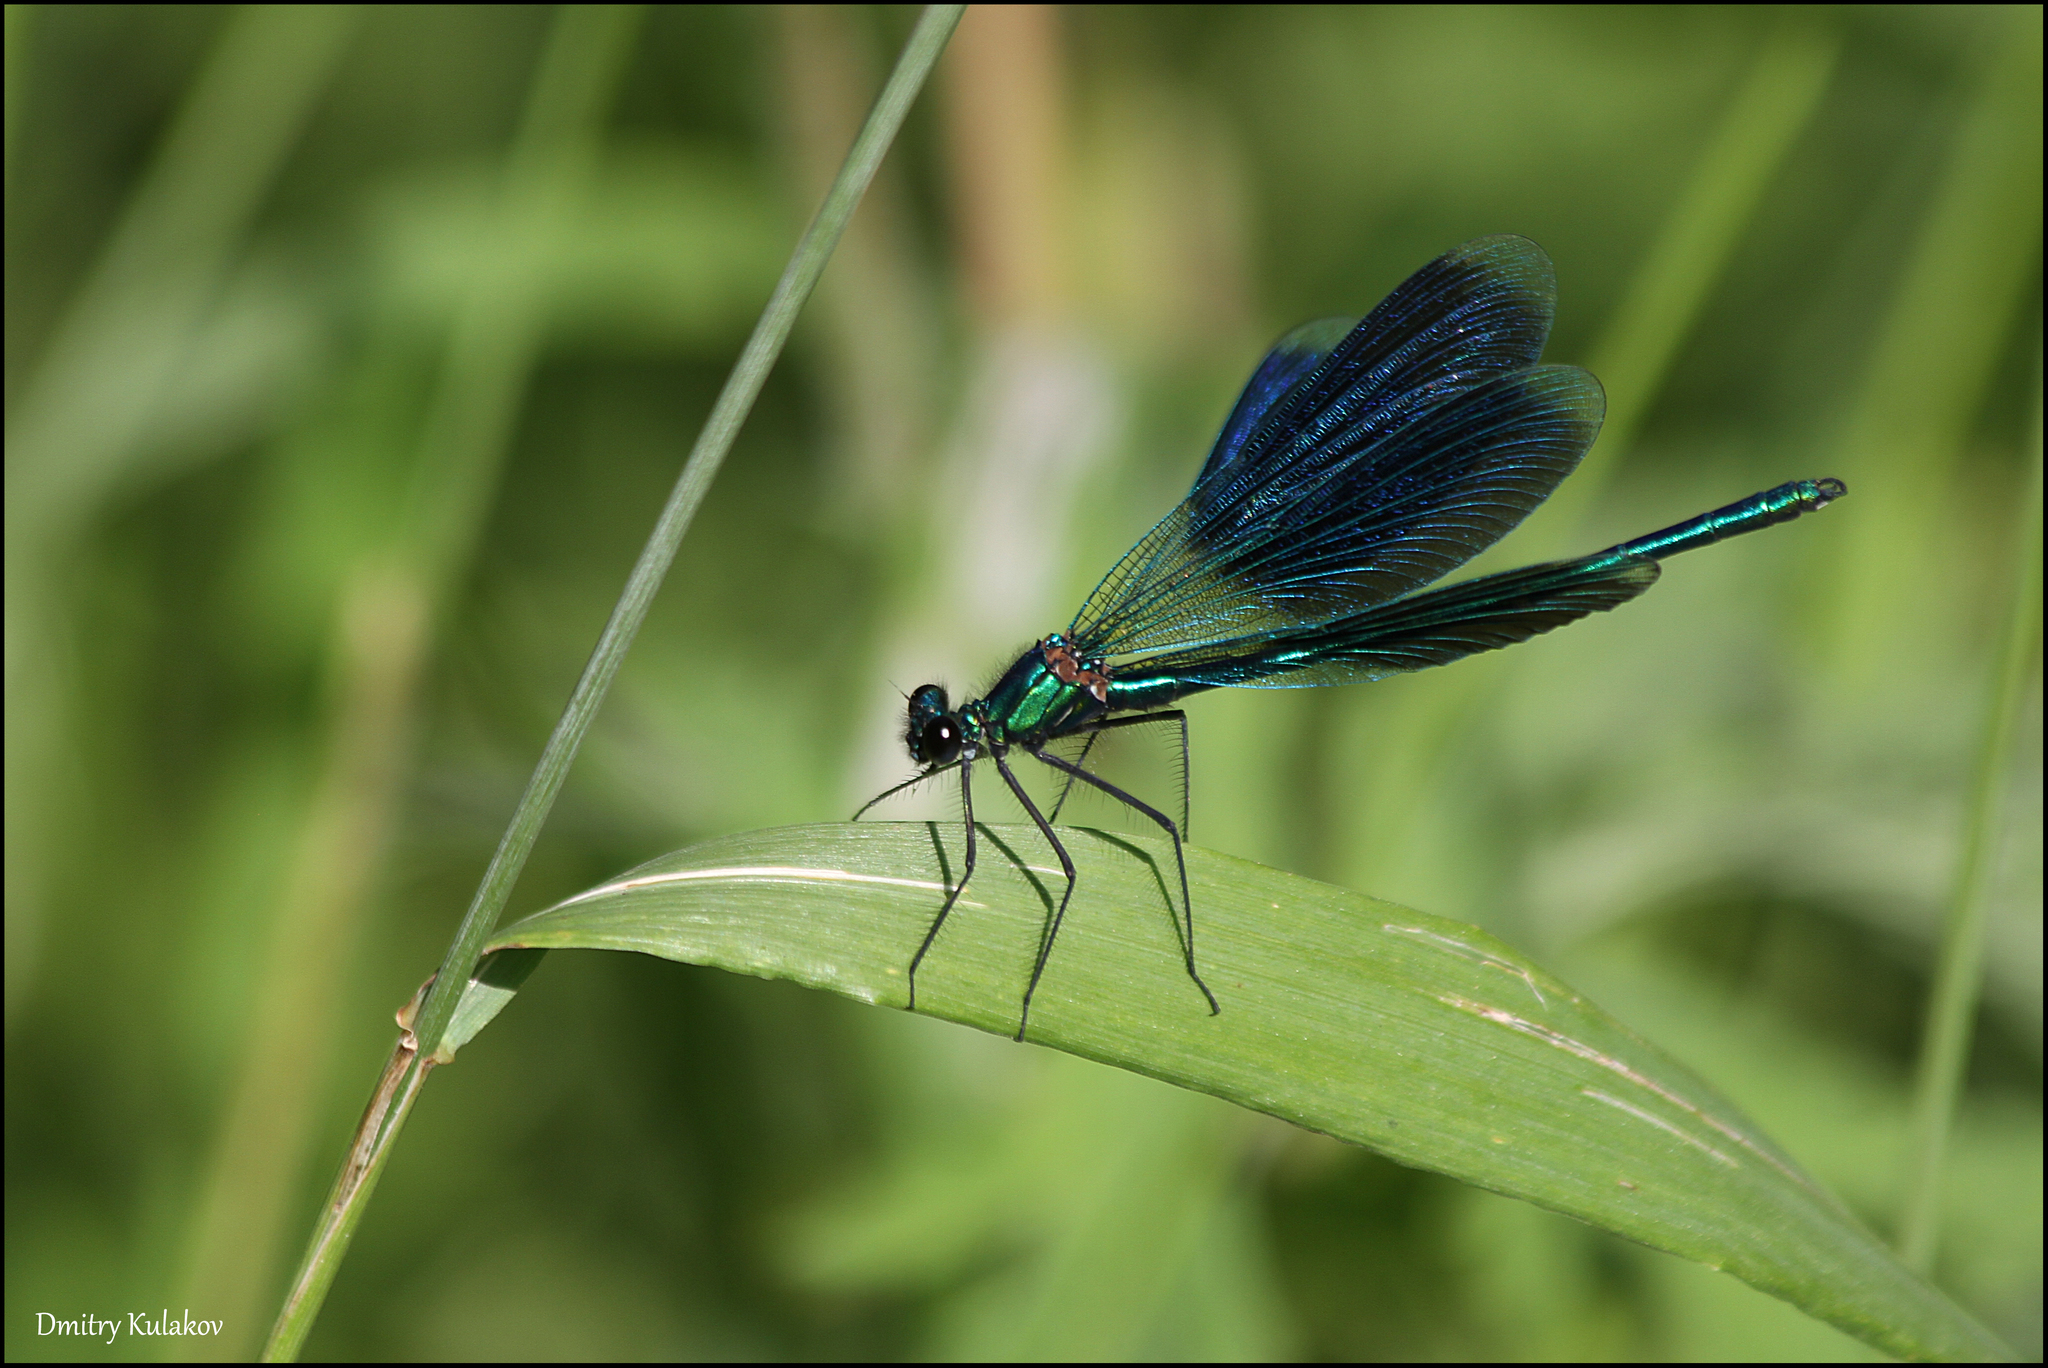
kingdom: Animalia
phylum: Arthropoda
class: Insecta
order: Odonata
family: Calopterygidae
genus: Calopteryx
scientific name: Calopteryx splendens
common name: Banded demoiselle
